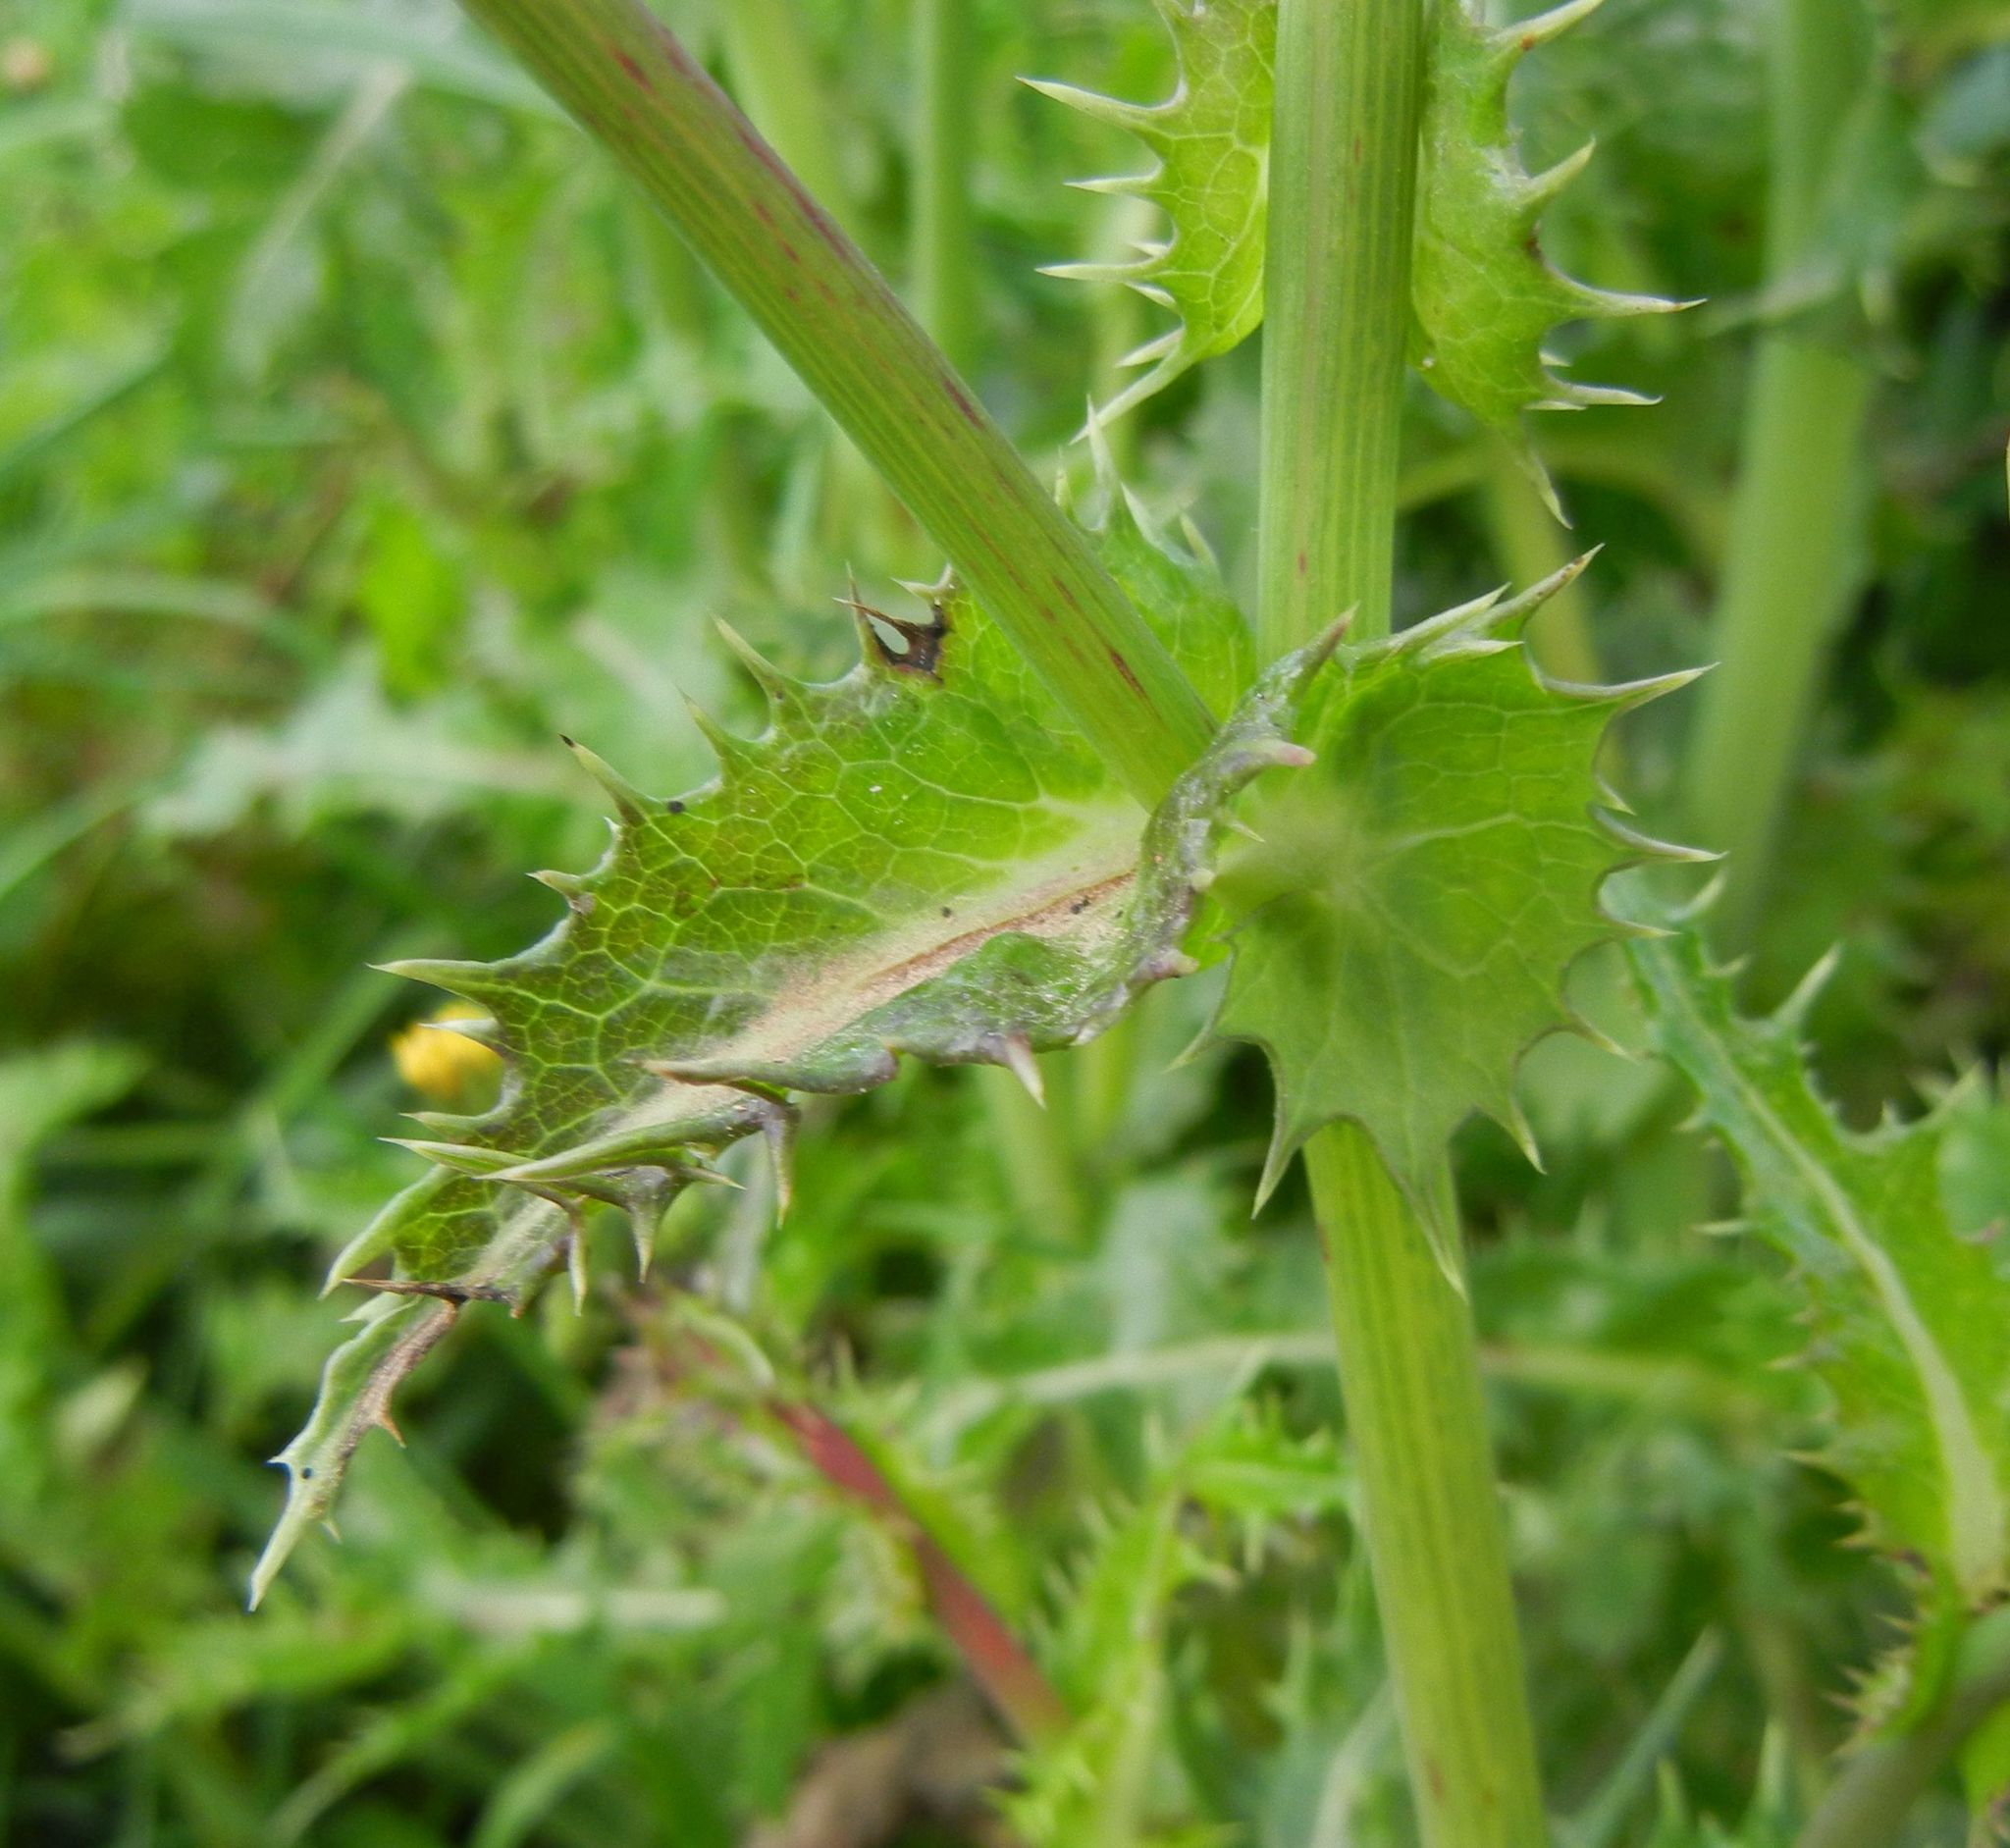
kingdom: Plantae
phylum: Tracheophyta
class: Magnoliopsida
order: Asterales
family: Asteraceae
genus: Sonchus
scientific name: Sonchus asper
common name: Prickly sow-thistle
